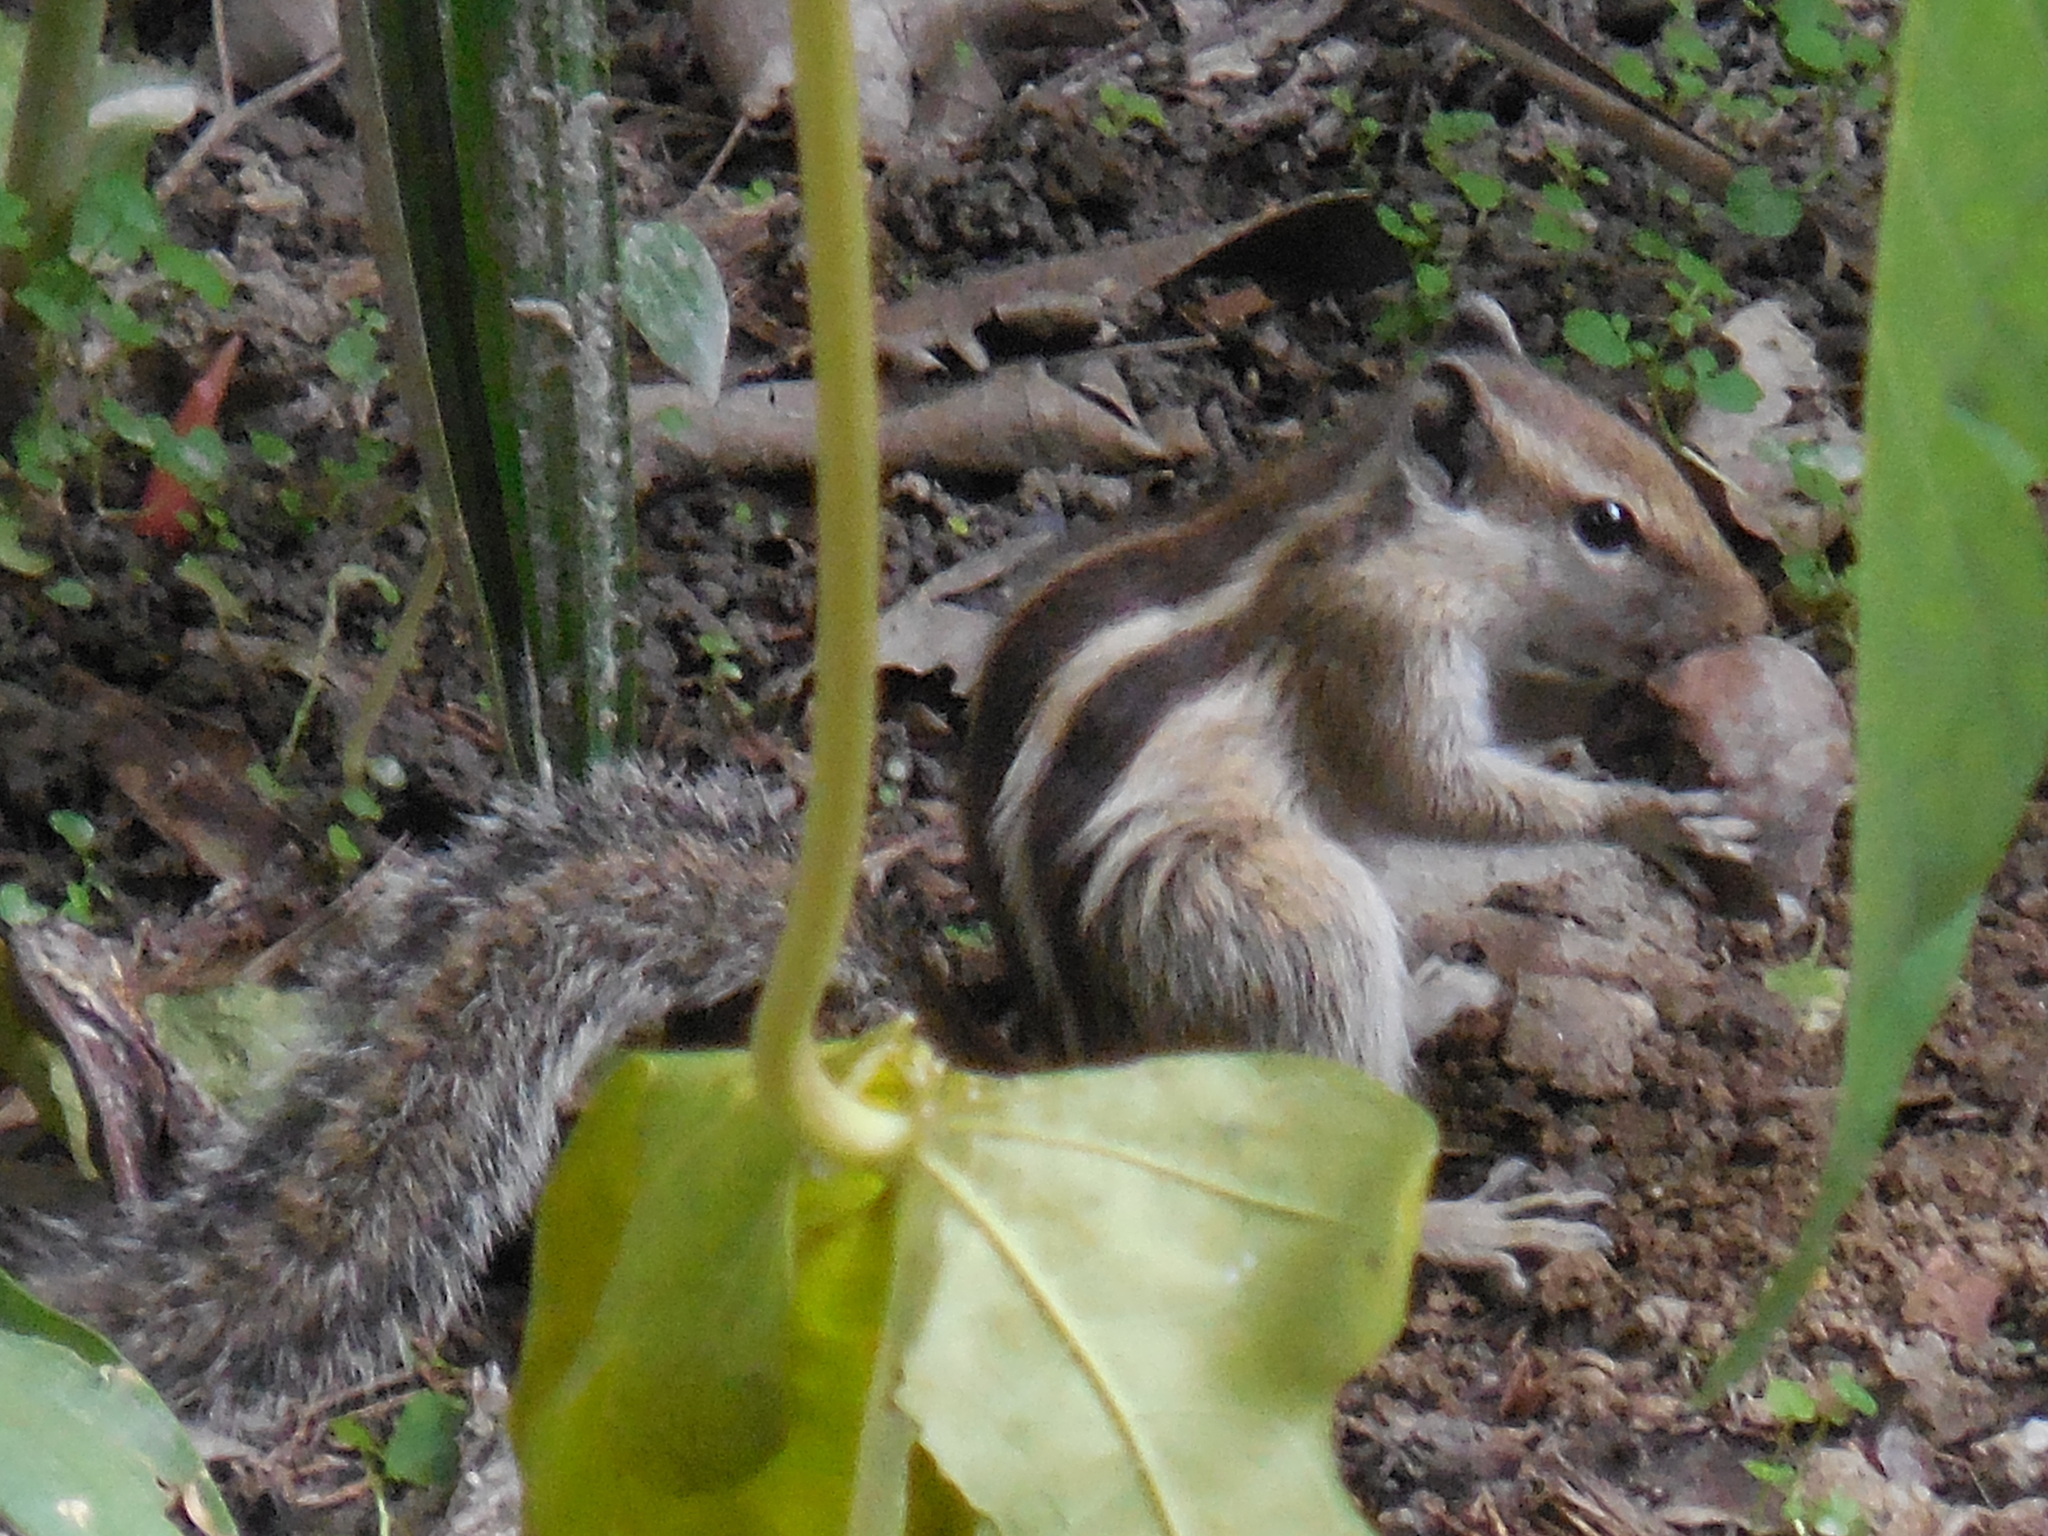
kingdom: Animalia
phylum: Chordata
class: Mammalia
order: Rodentia
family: Sciuridae
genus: Funambulus
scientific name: Funambulus pennantii
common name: Northern palm squirrel
